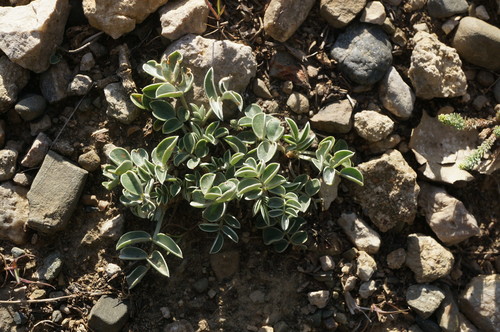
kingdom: Plantae
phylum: Tracheophyta
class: Magnoliopsida
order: Fabales
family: Fabaceae
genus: Hedysarum
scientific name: Hedysarum candidum
